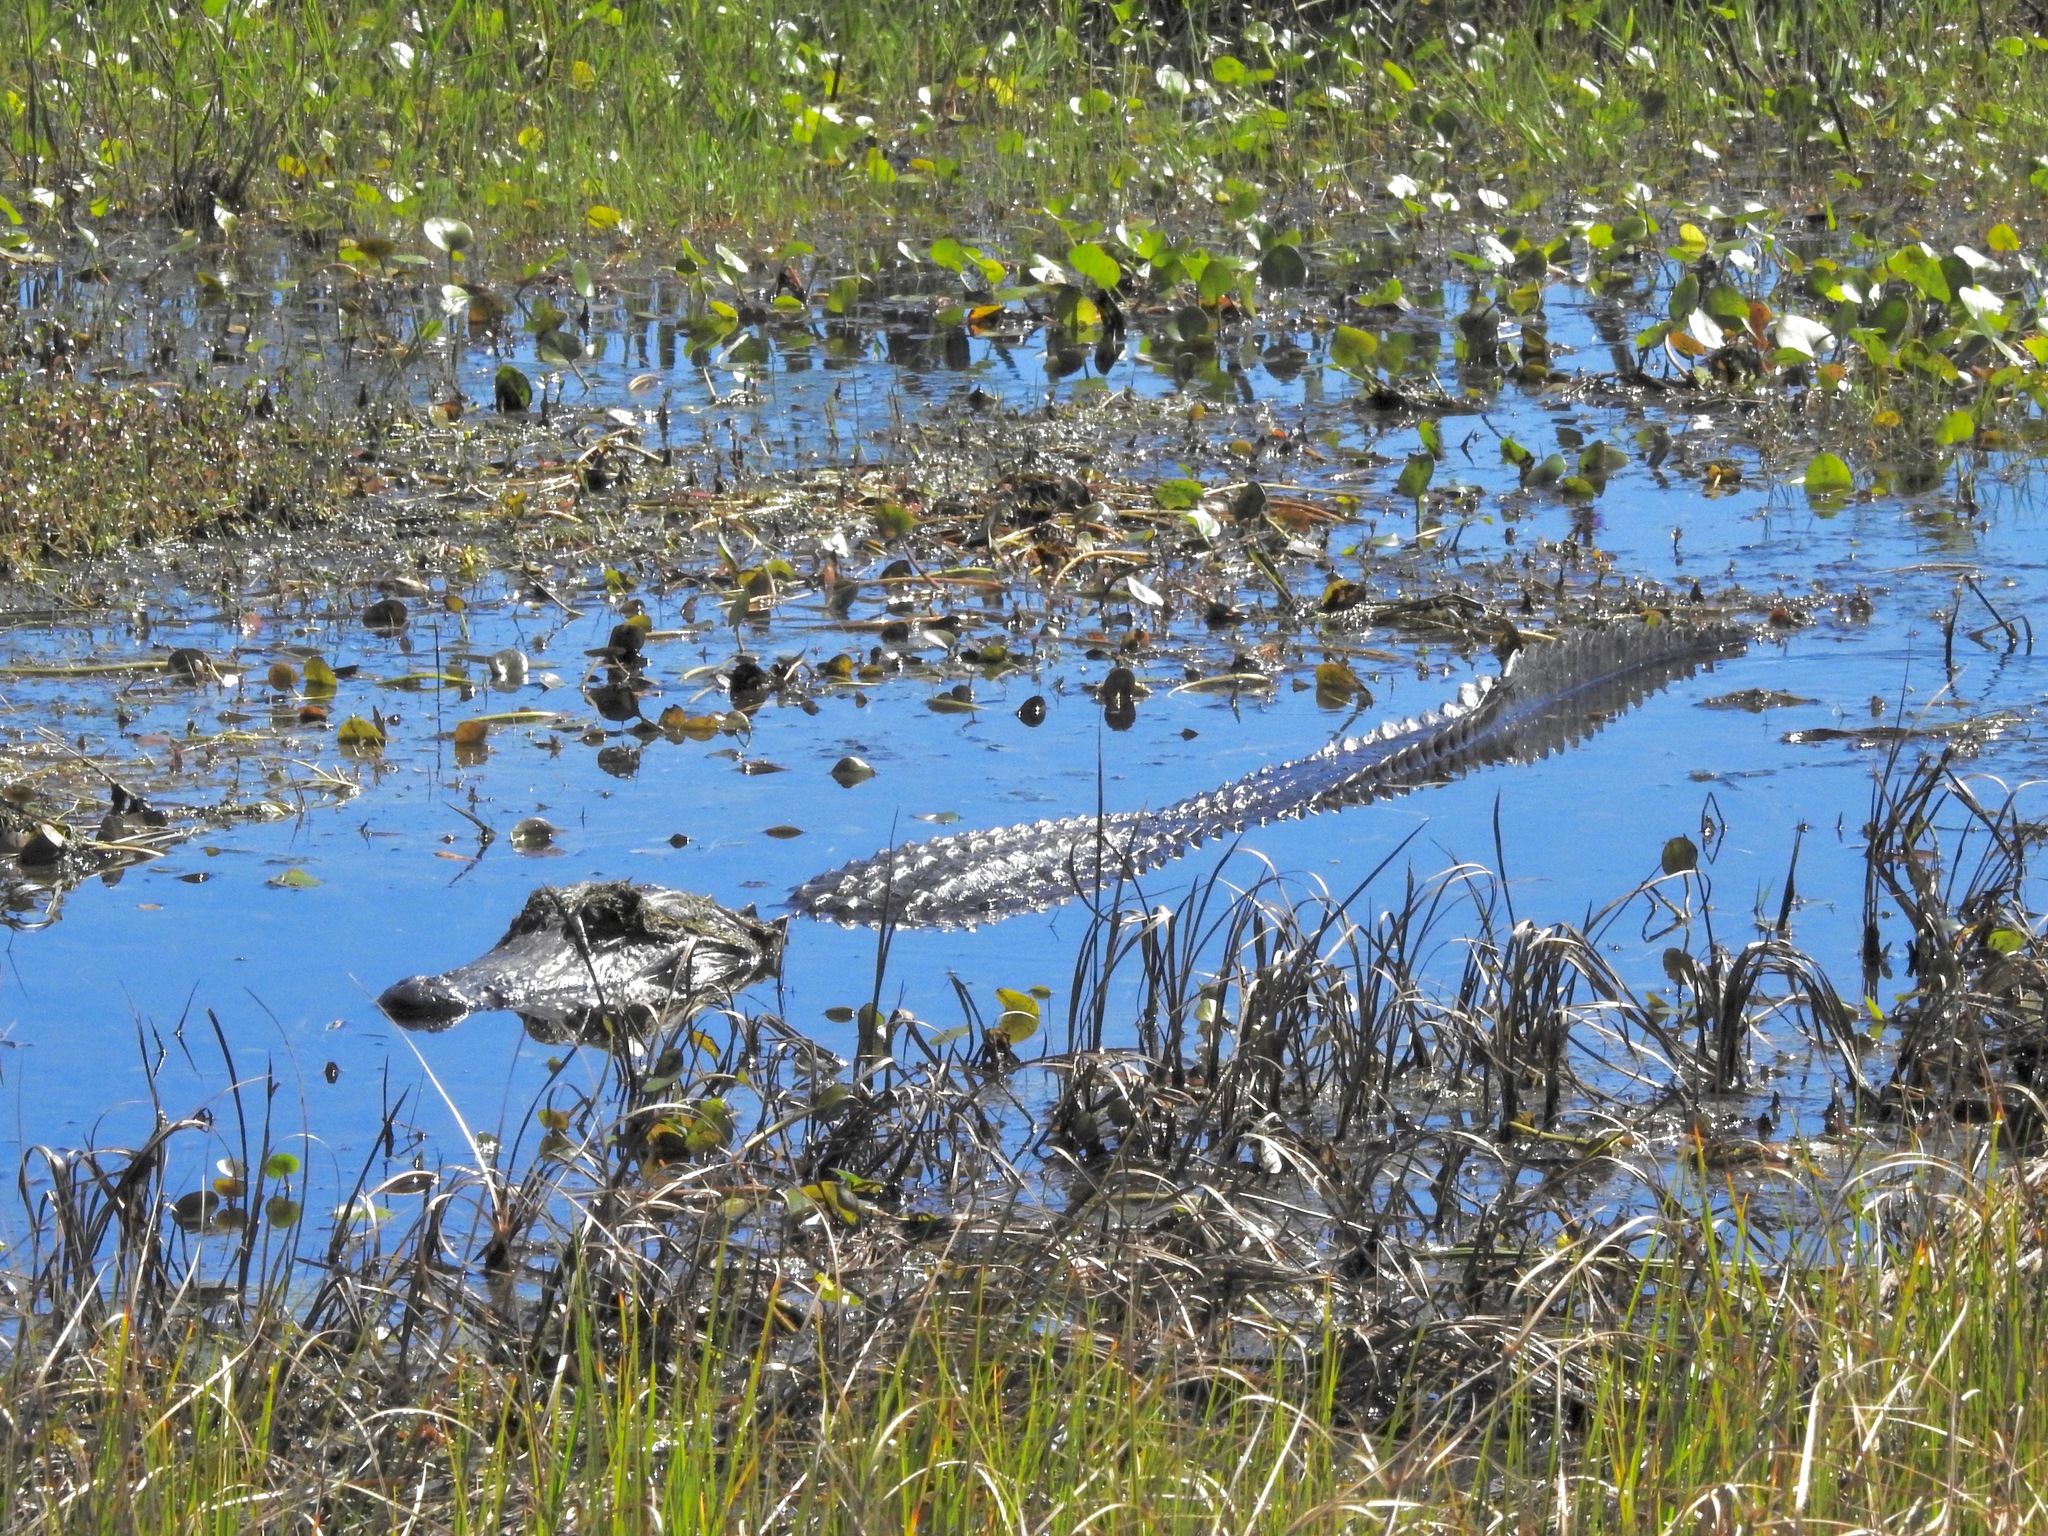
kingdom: Animalia
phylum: Chordata
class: Crocodylia
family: Alligatoridae
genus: Alligator
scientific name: Alligator mississippiensis
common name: American alligator
